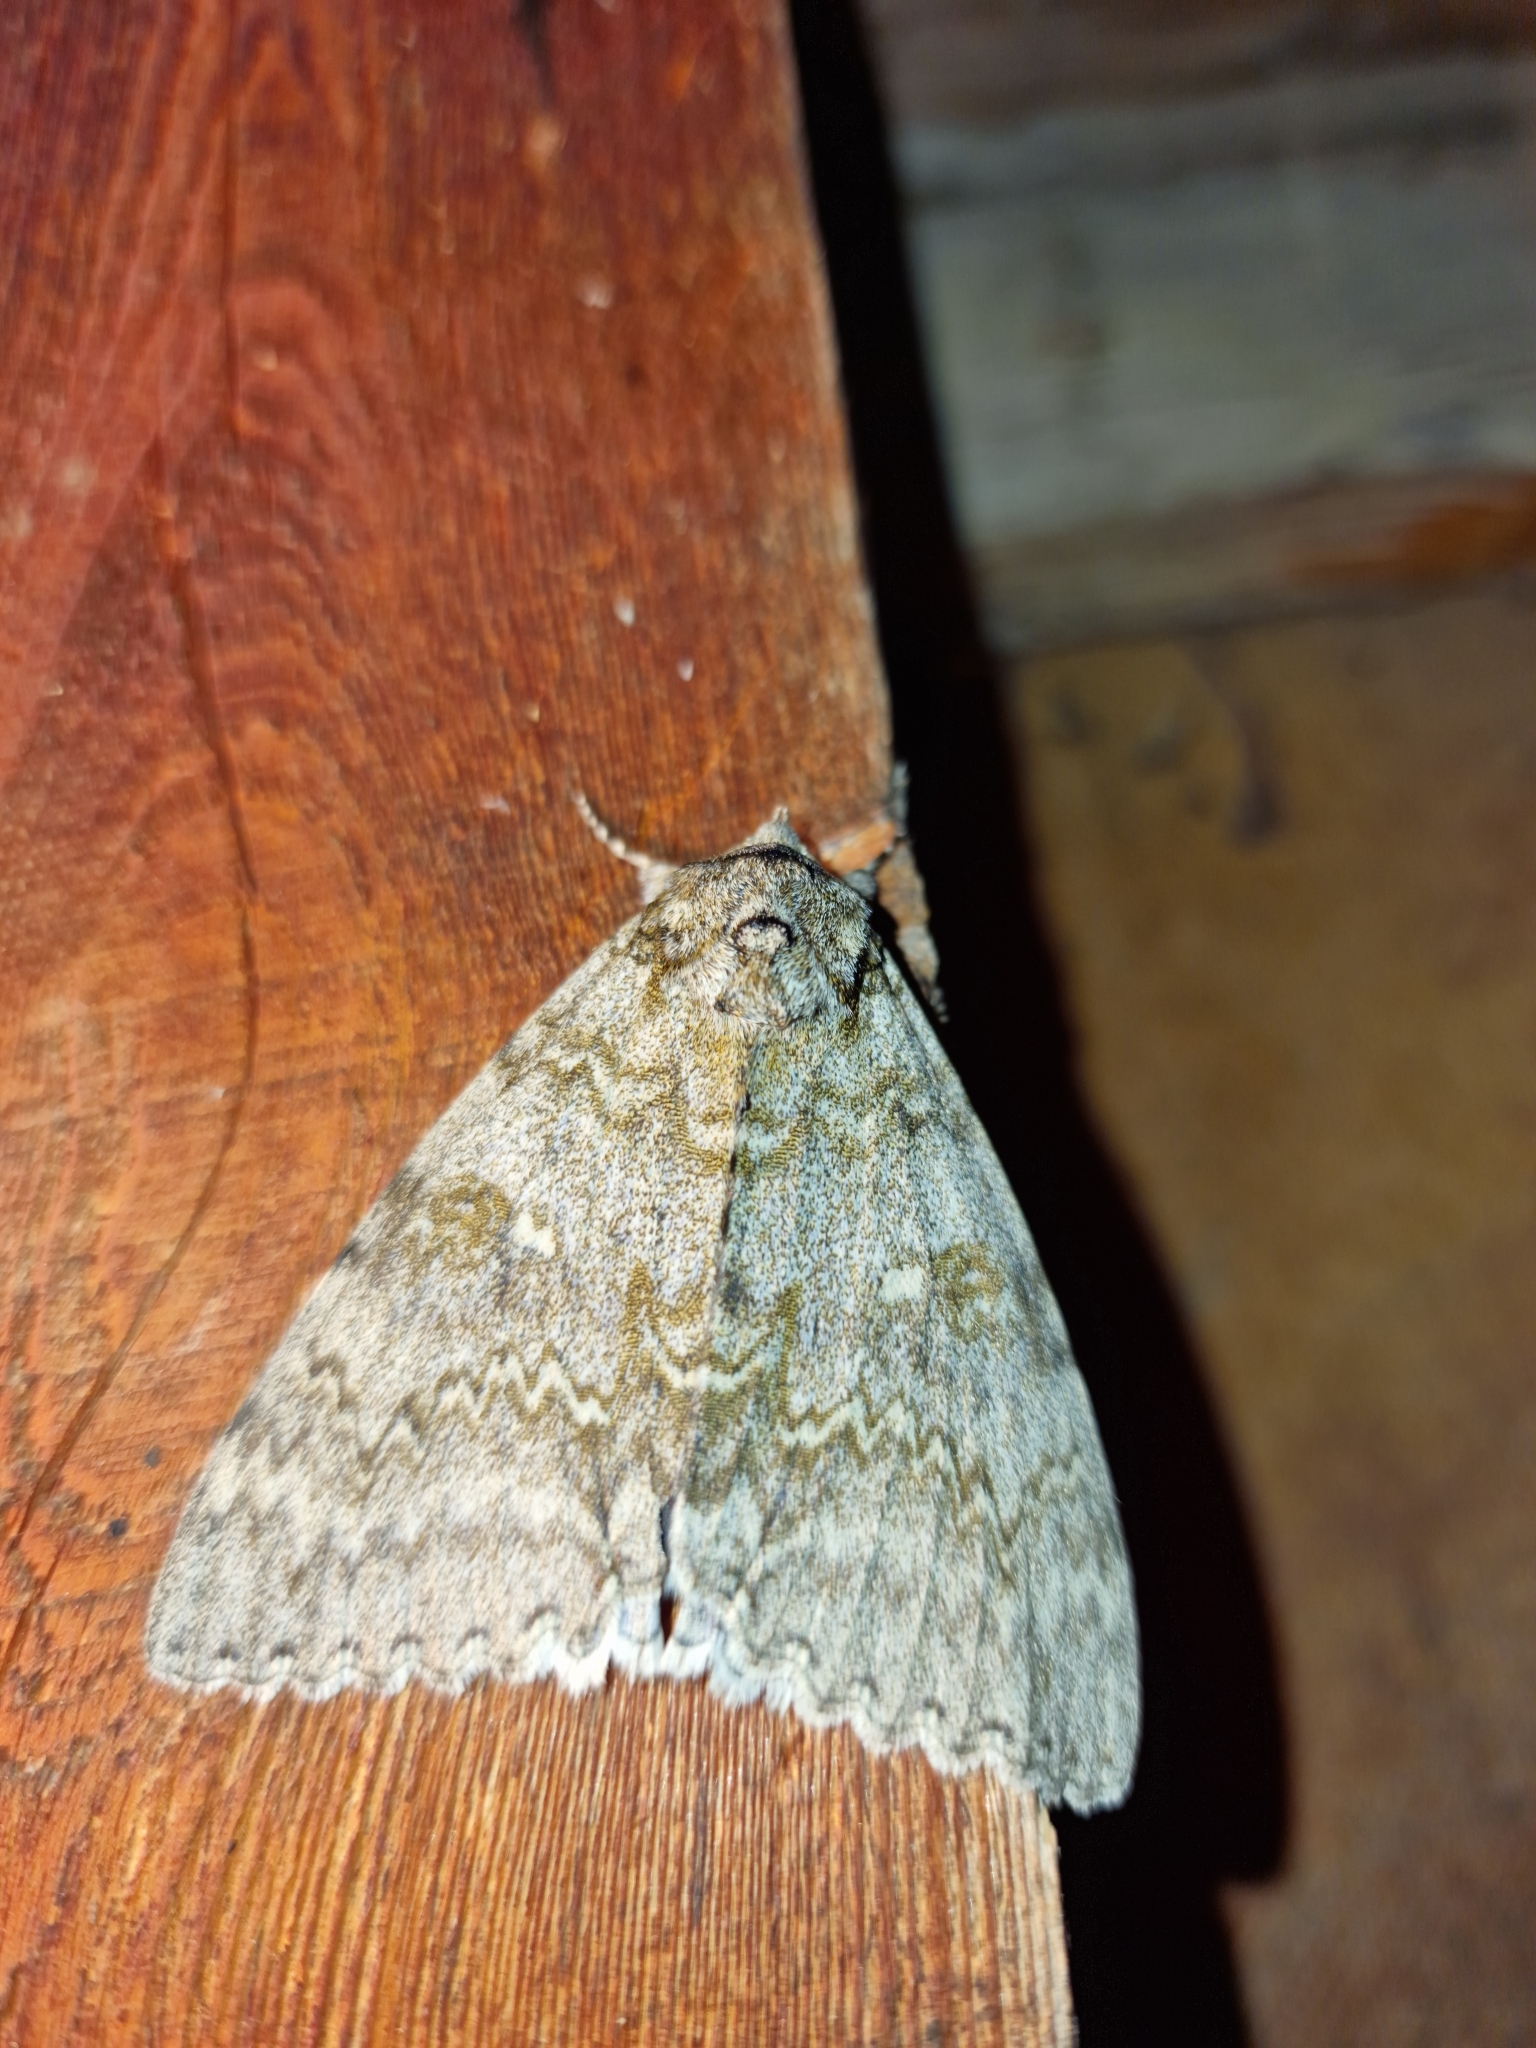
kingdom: Animalia
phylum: Arthropoda
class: Insecta
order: Lepidoptera
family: Erebidae
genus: Catocala
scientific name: Catocala fraxini
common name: Clifden nonpareil
